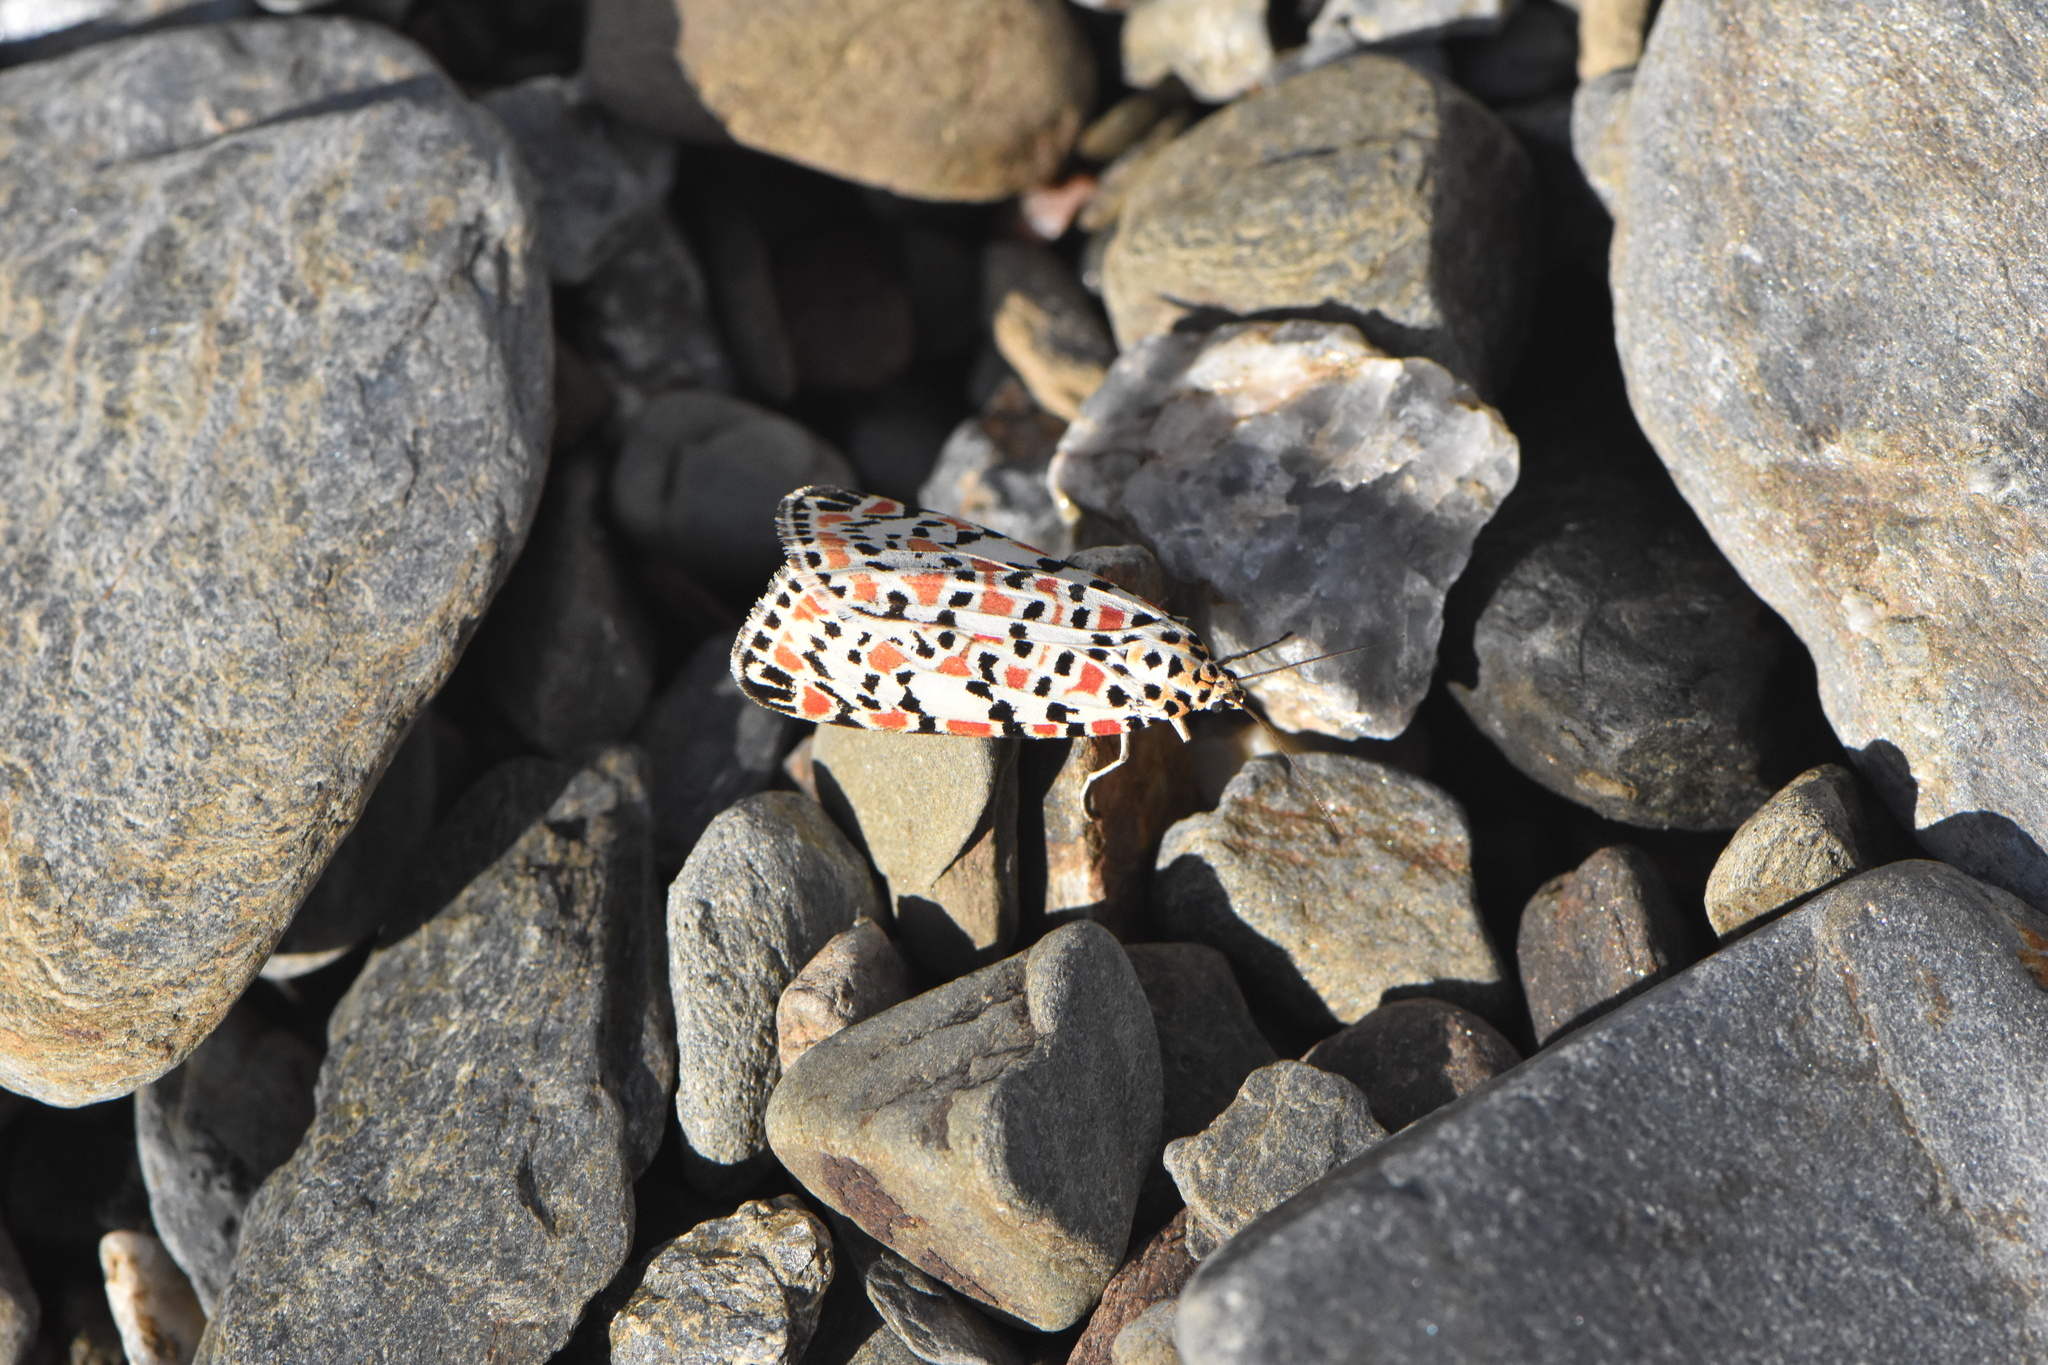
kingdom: Animalia
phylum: Arthropoda
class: Insecta
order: Lepidoptera
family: Erebidae
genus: Utetheisa
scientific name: Utetheisa pulchella
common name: Crimson speckled
